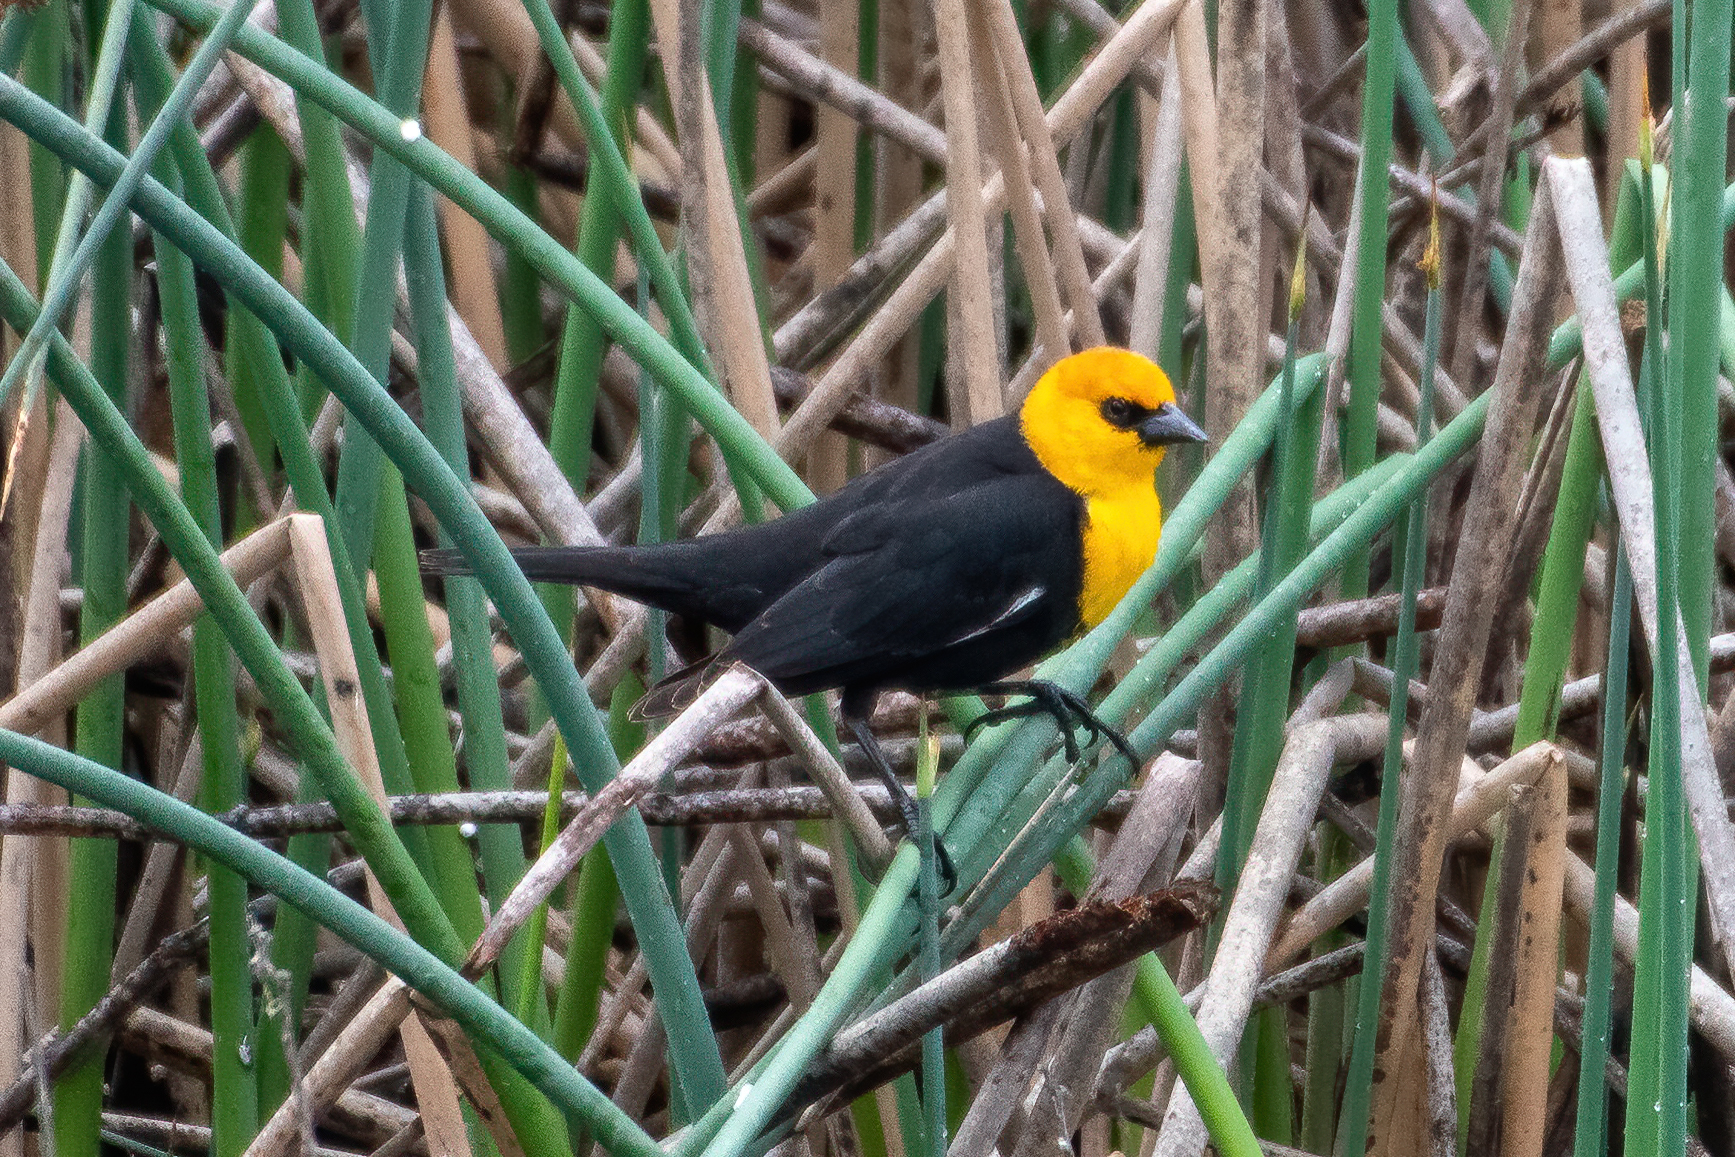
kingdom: Animalia
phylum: Chordata
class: Aves
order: Passeriformes
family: Icteridae
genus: Xanthocephalus
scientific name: Xanthocephalus xanthocephalus
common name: Yellow-headed blackbird
